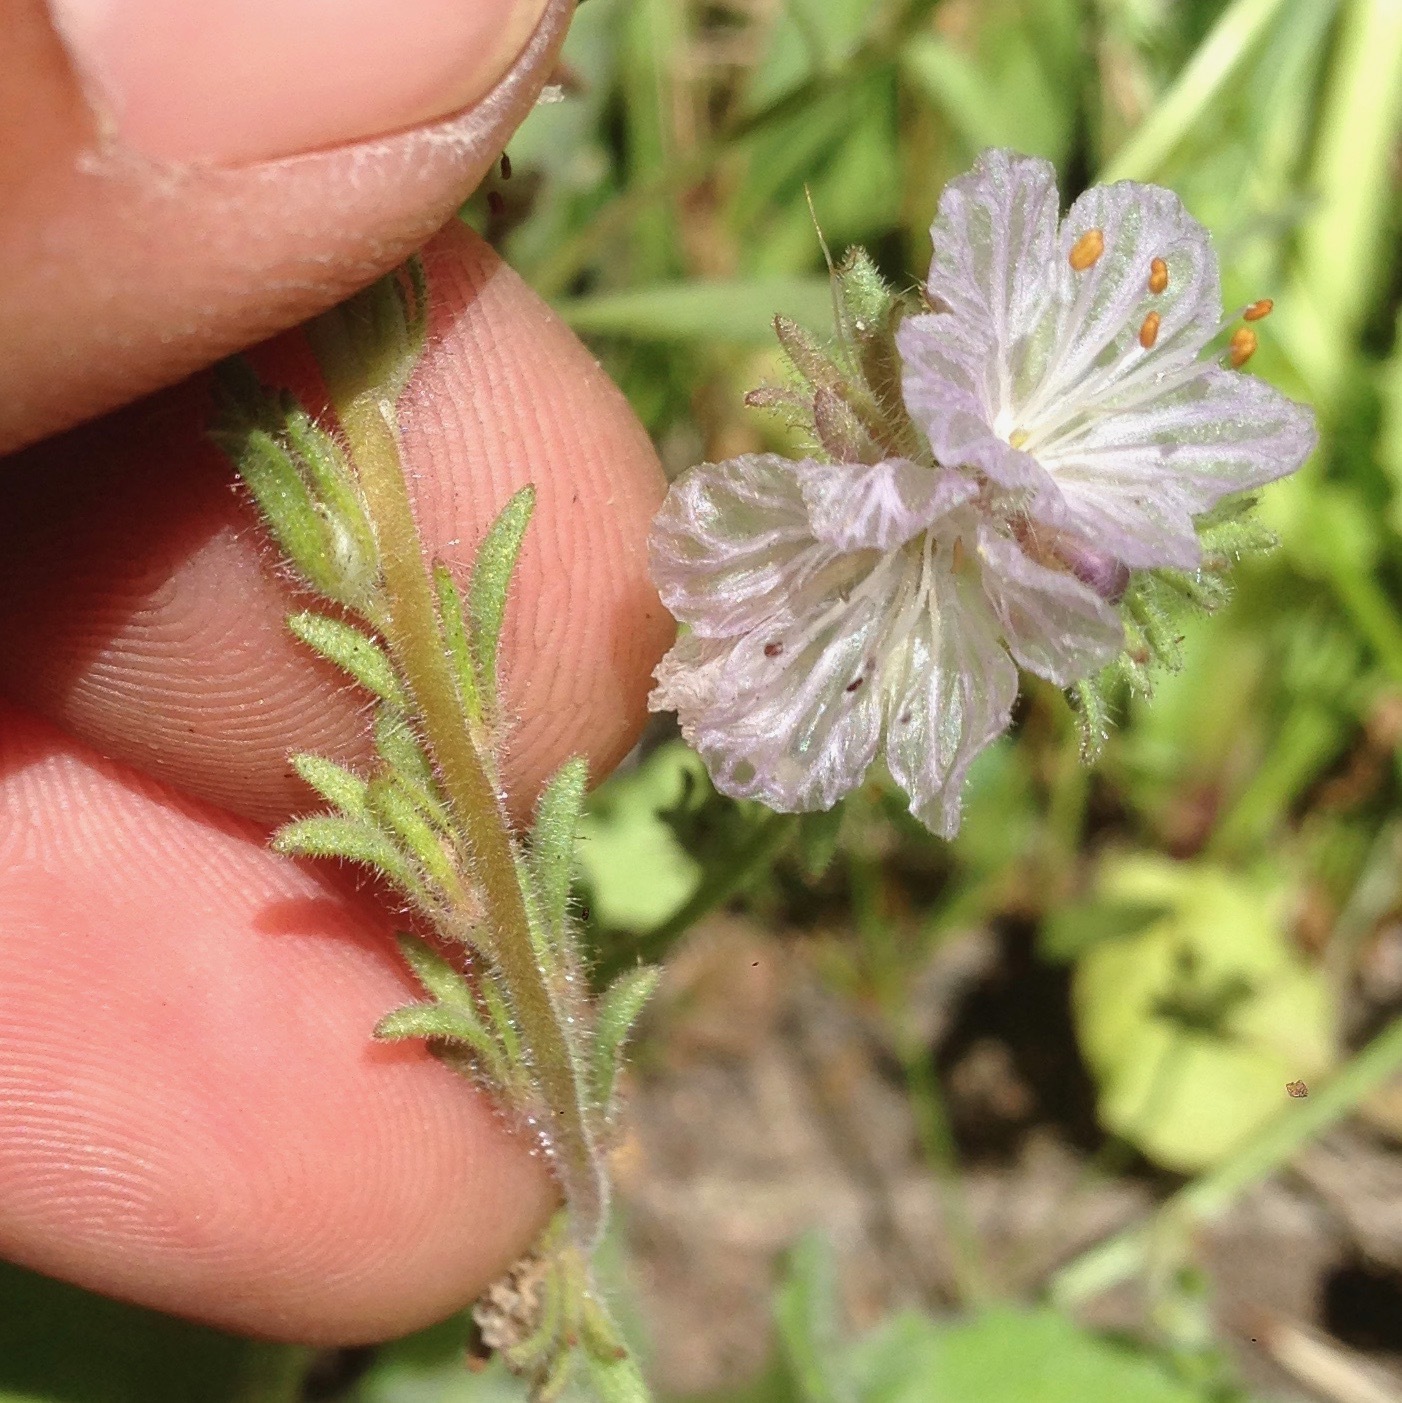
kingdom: Plantae
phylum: Tracheophyta
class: Magnoliopsida
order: Boraginales
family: Hydrophyllaceae
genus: Phacelia
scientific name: Phacelia exilis
